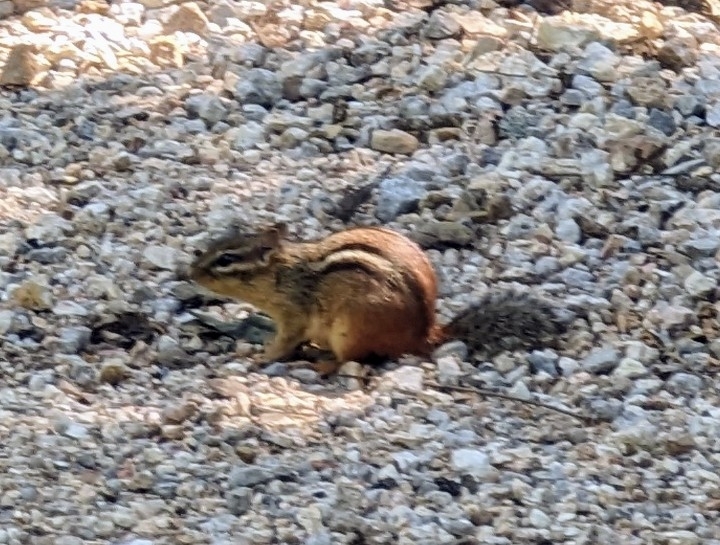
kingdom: Animalia
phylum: Chordata
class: Mammalia
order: Rodentia
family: Sciuridae
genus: Tamias
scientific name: Tamias striatus
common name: Eastern chipmunk
